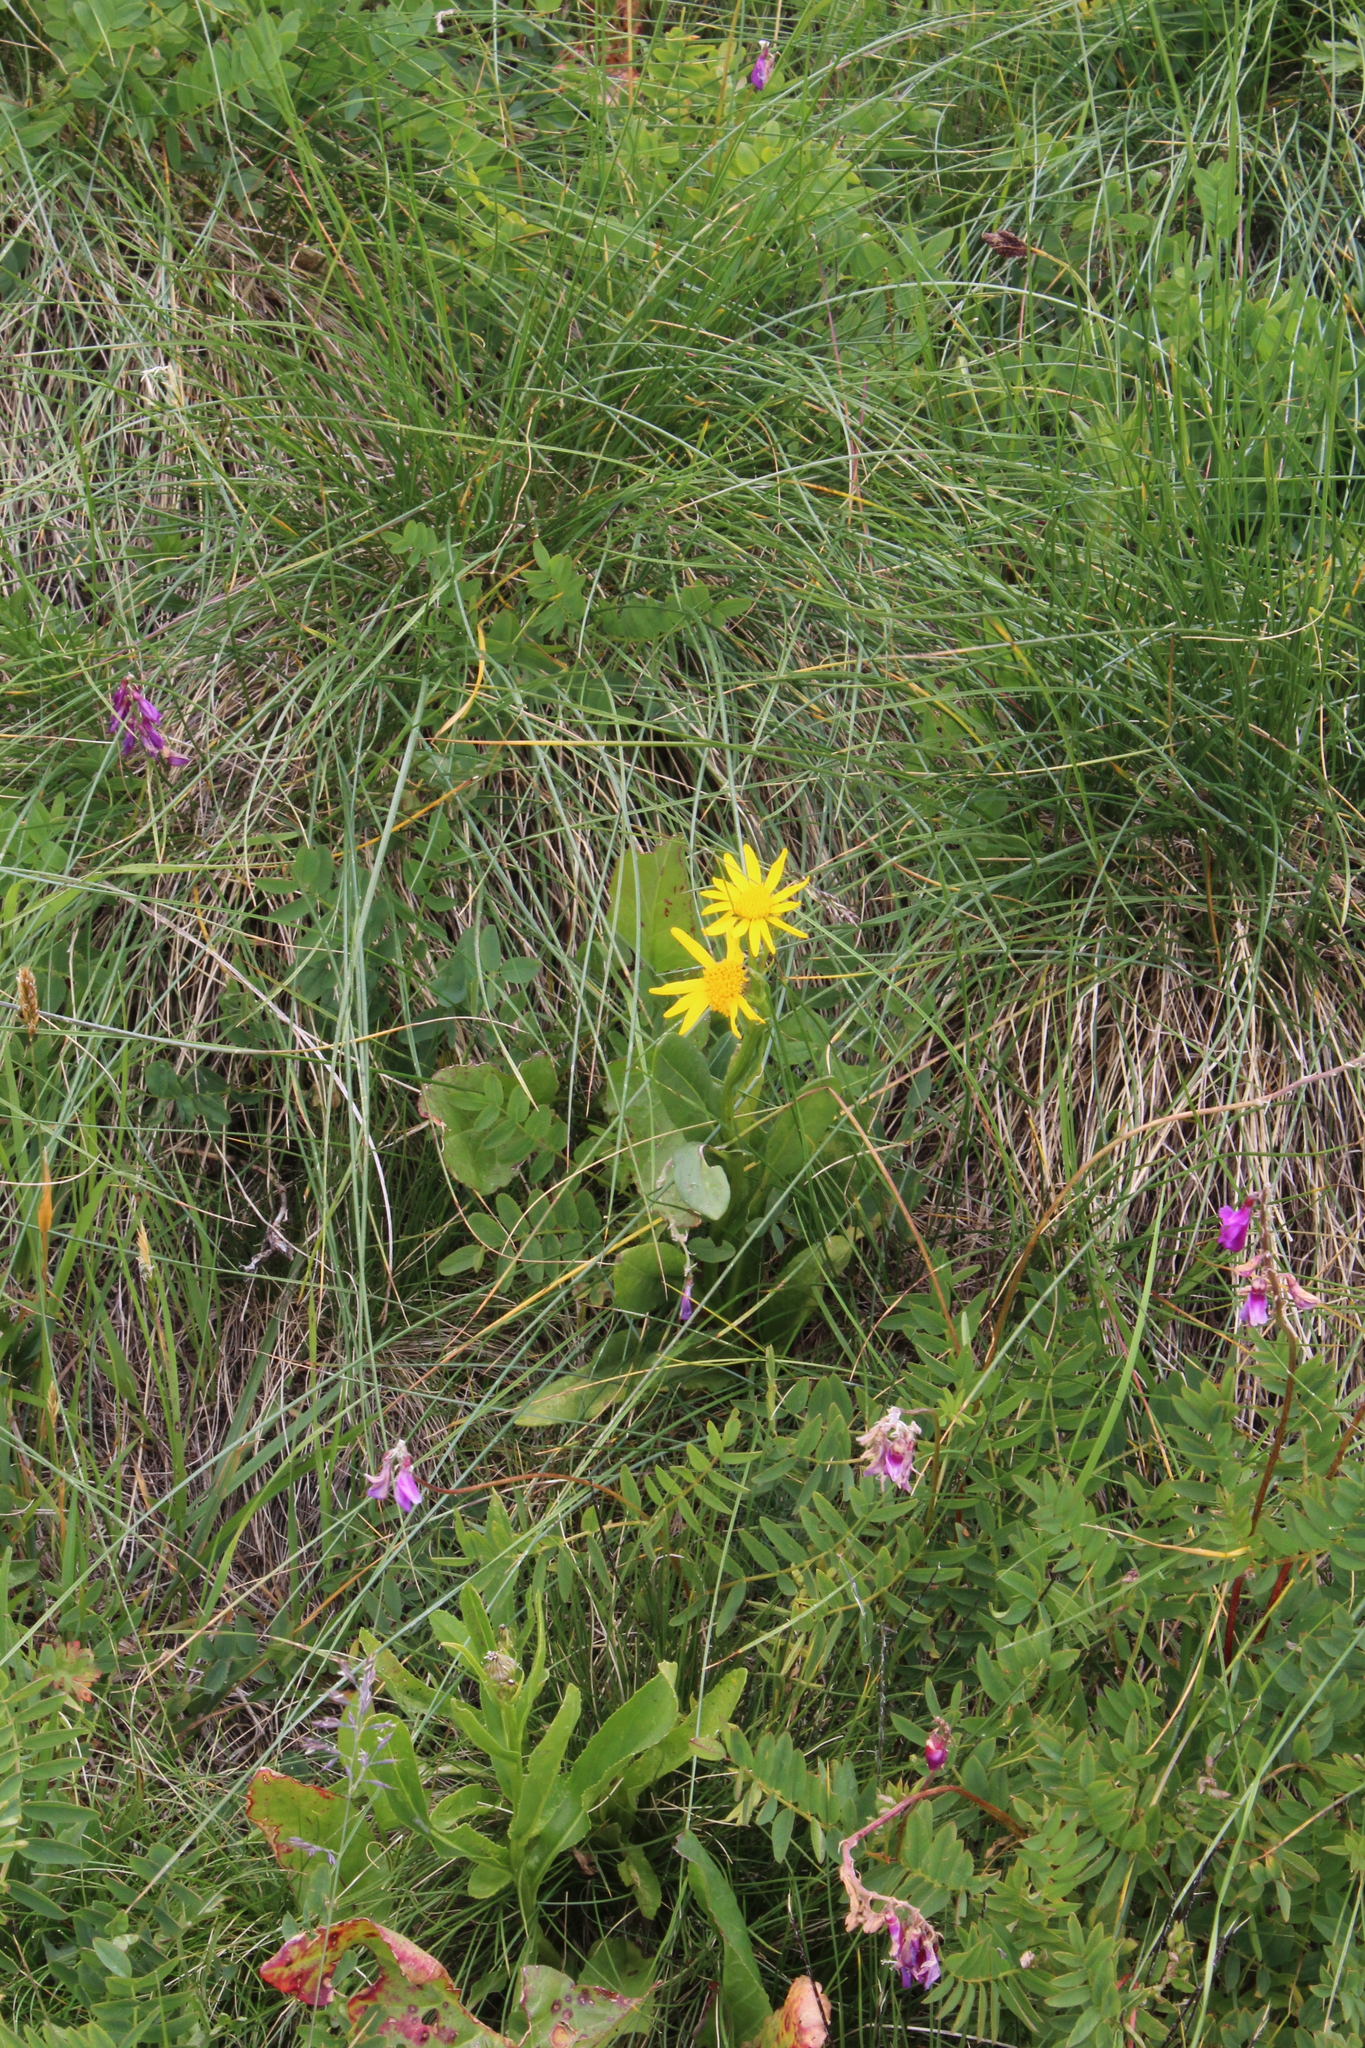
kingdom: Plantae
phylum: Tracheophyta
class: Magnoliopsida
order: Asterales
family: Asteraceae
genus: Senecio
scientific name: Senecio kolenatianus
